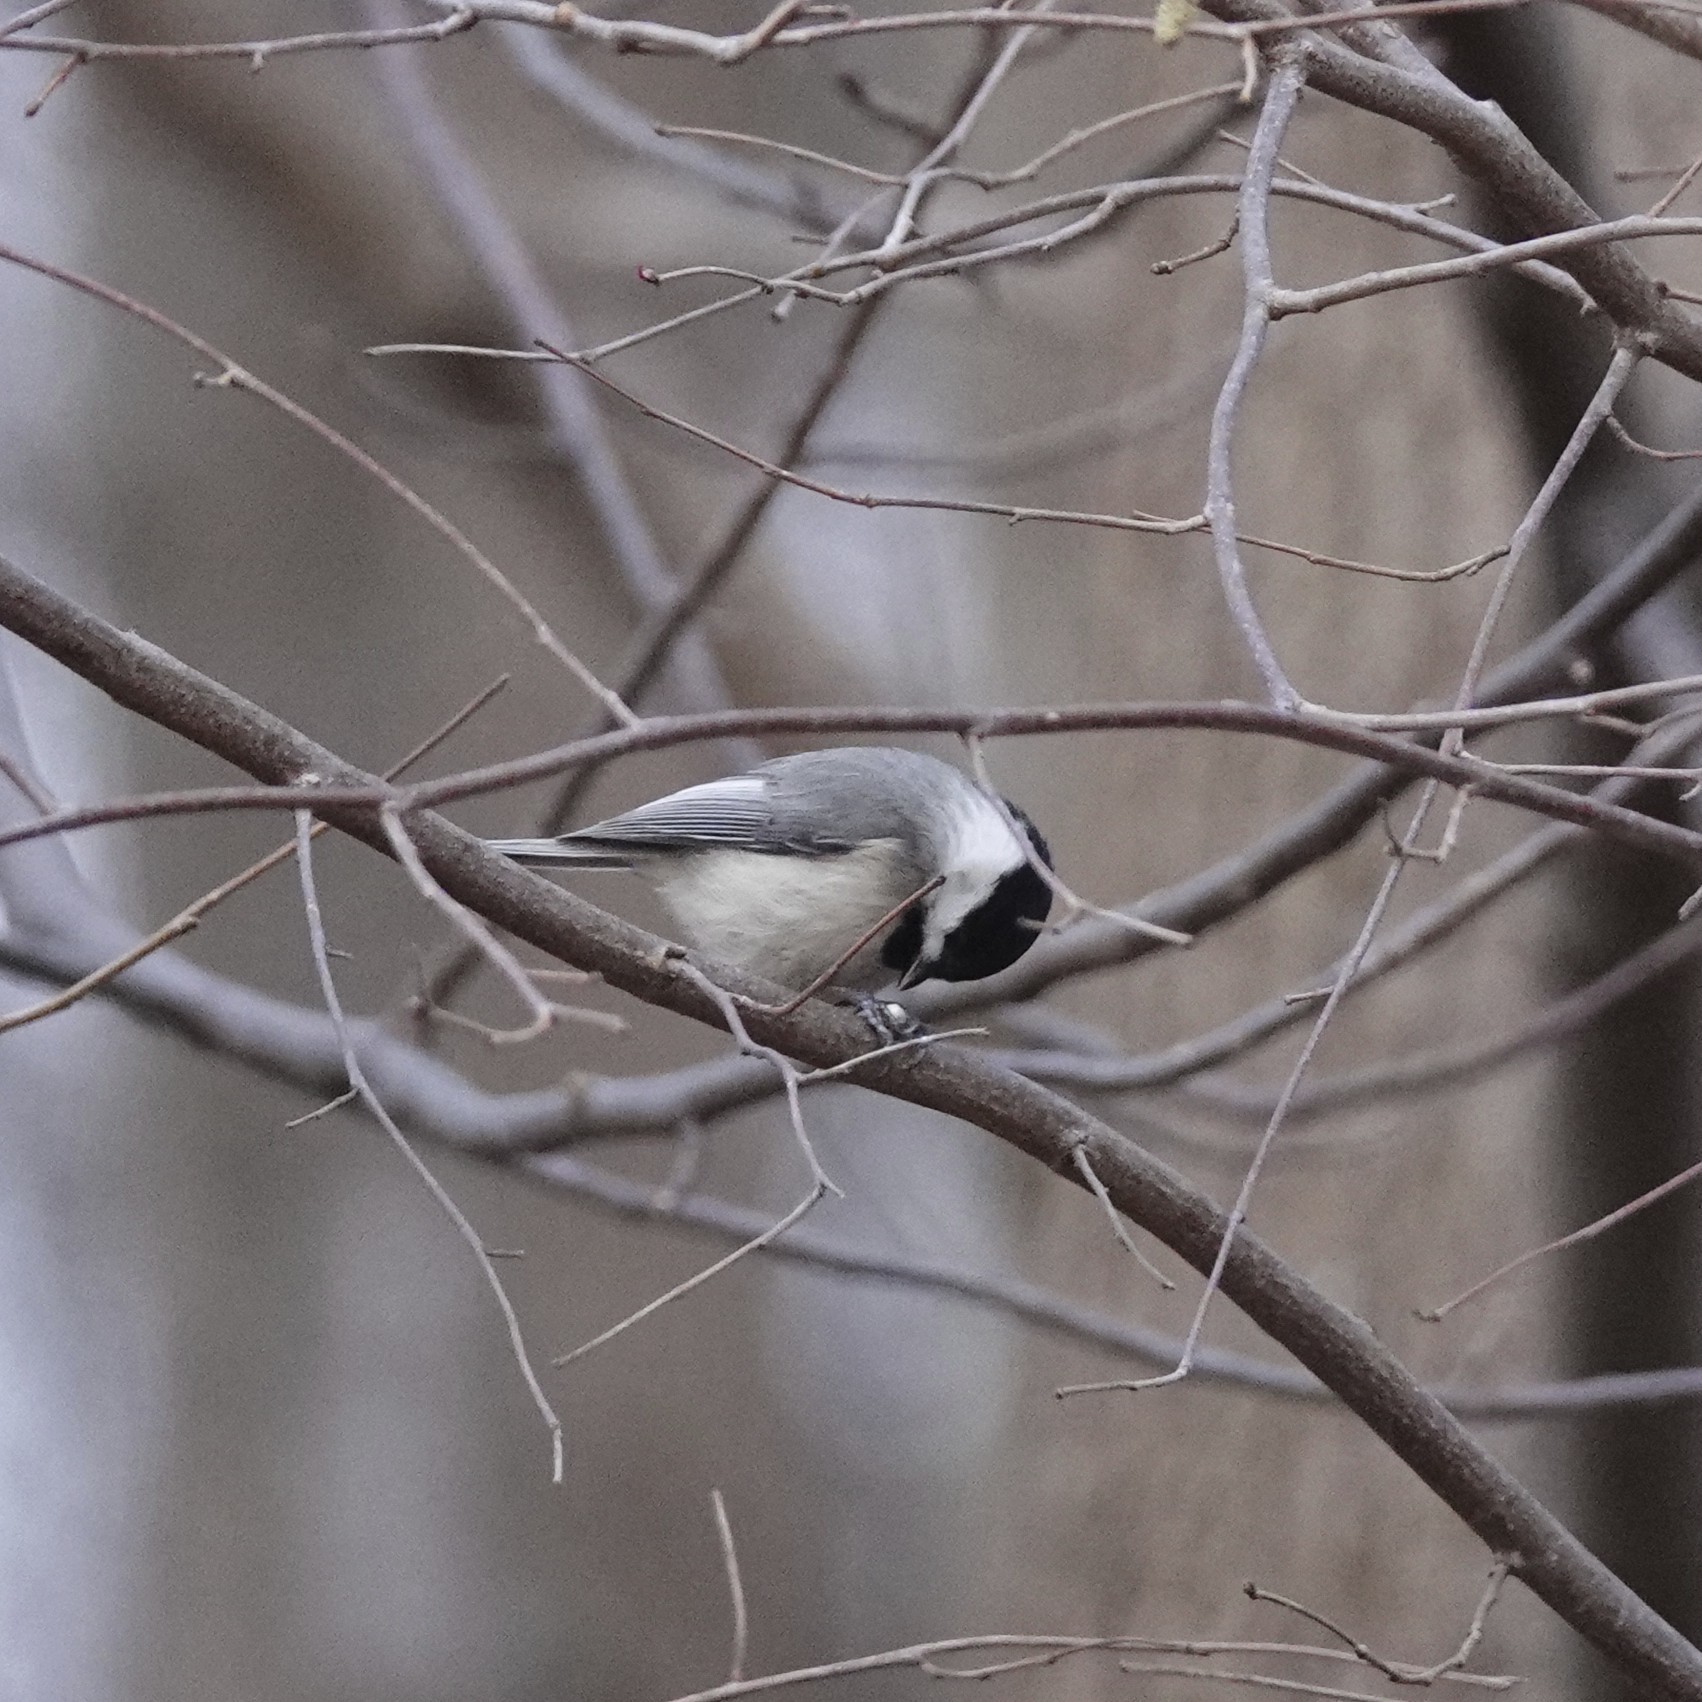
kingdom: Animalia
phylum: Chordata
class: Aves
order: Passeriformes
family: Paridae
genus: Poecile
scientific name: Poecile carolinensis
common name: Carolina chickadee
